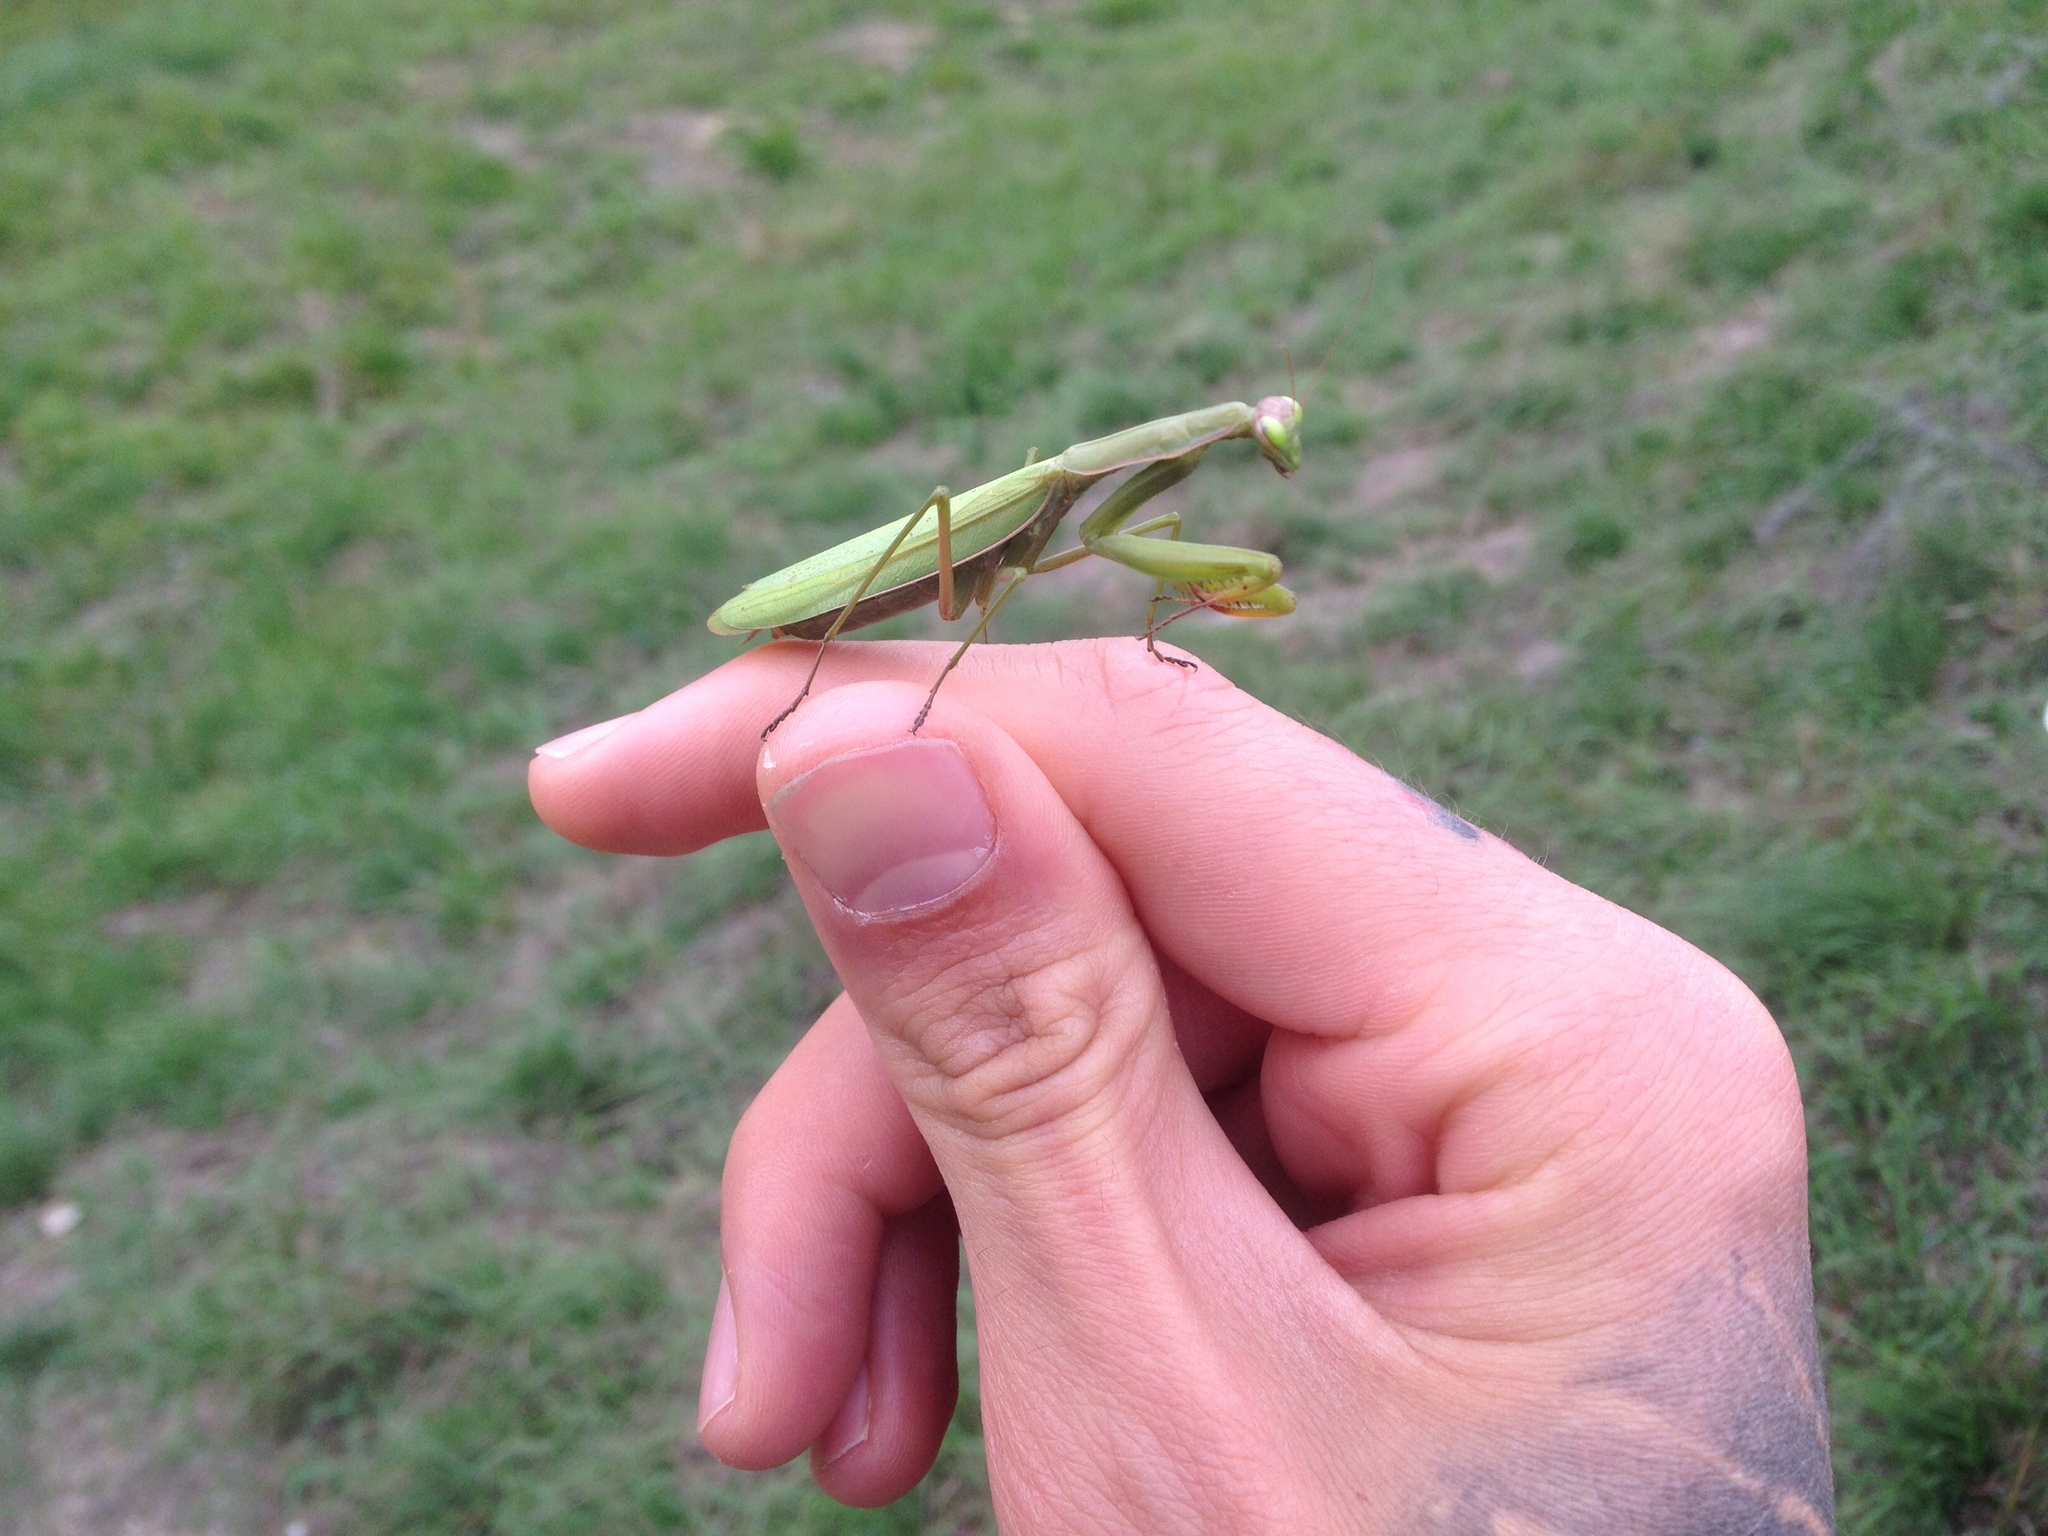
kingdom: Animalia
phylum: Arthropoda
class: Insecta
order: Mantodea
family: Mantidae
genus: Mantis
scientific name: Mantis religiosa
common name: Praying mantis
